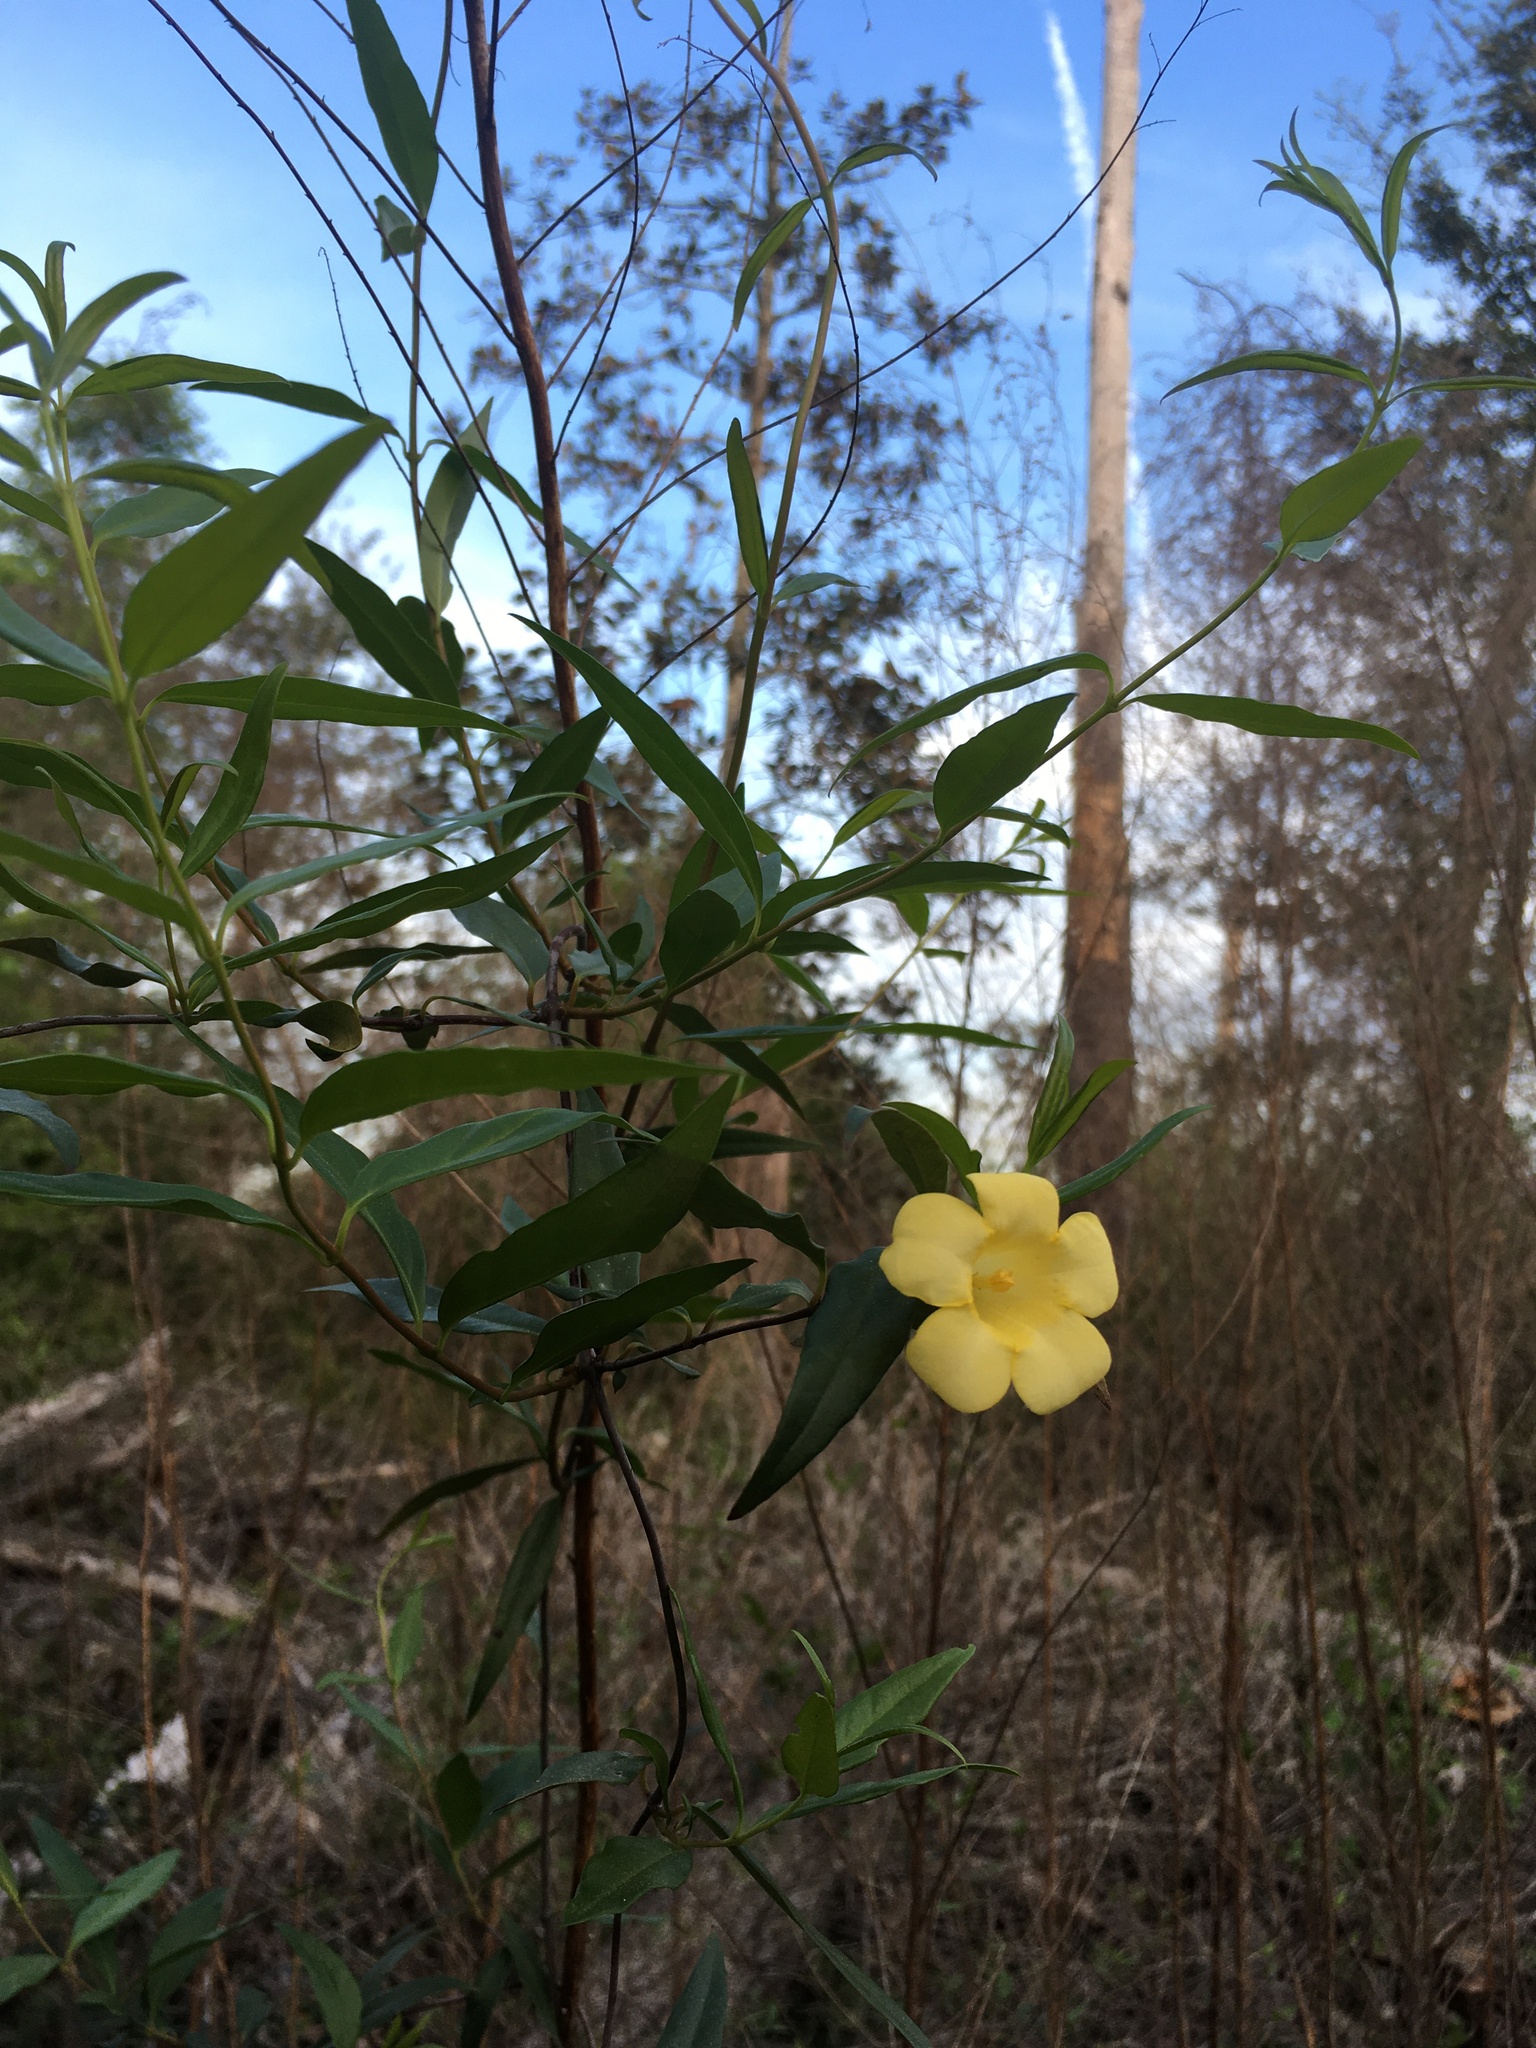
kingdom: Plantae
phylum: Tracheophyta
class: Magnoliopsida
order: Gentianales
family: Gelsemiaceae
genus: Gelsemium
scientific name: Gelsemium sempervirens
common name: Carolina-jasmine
